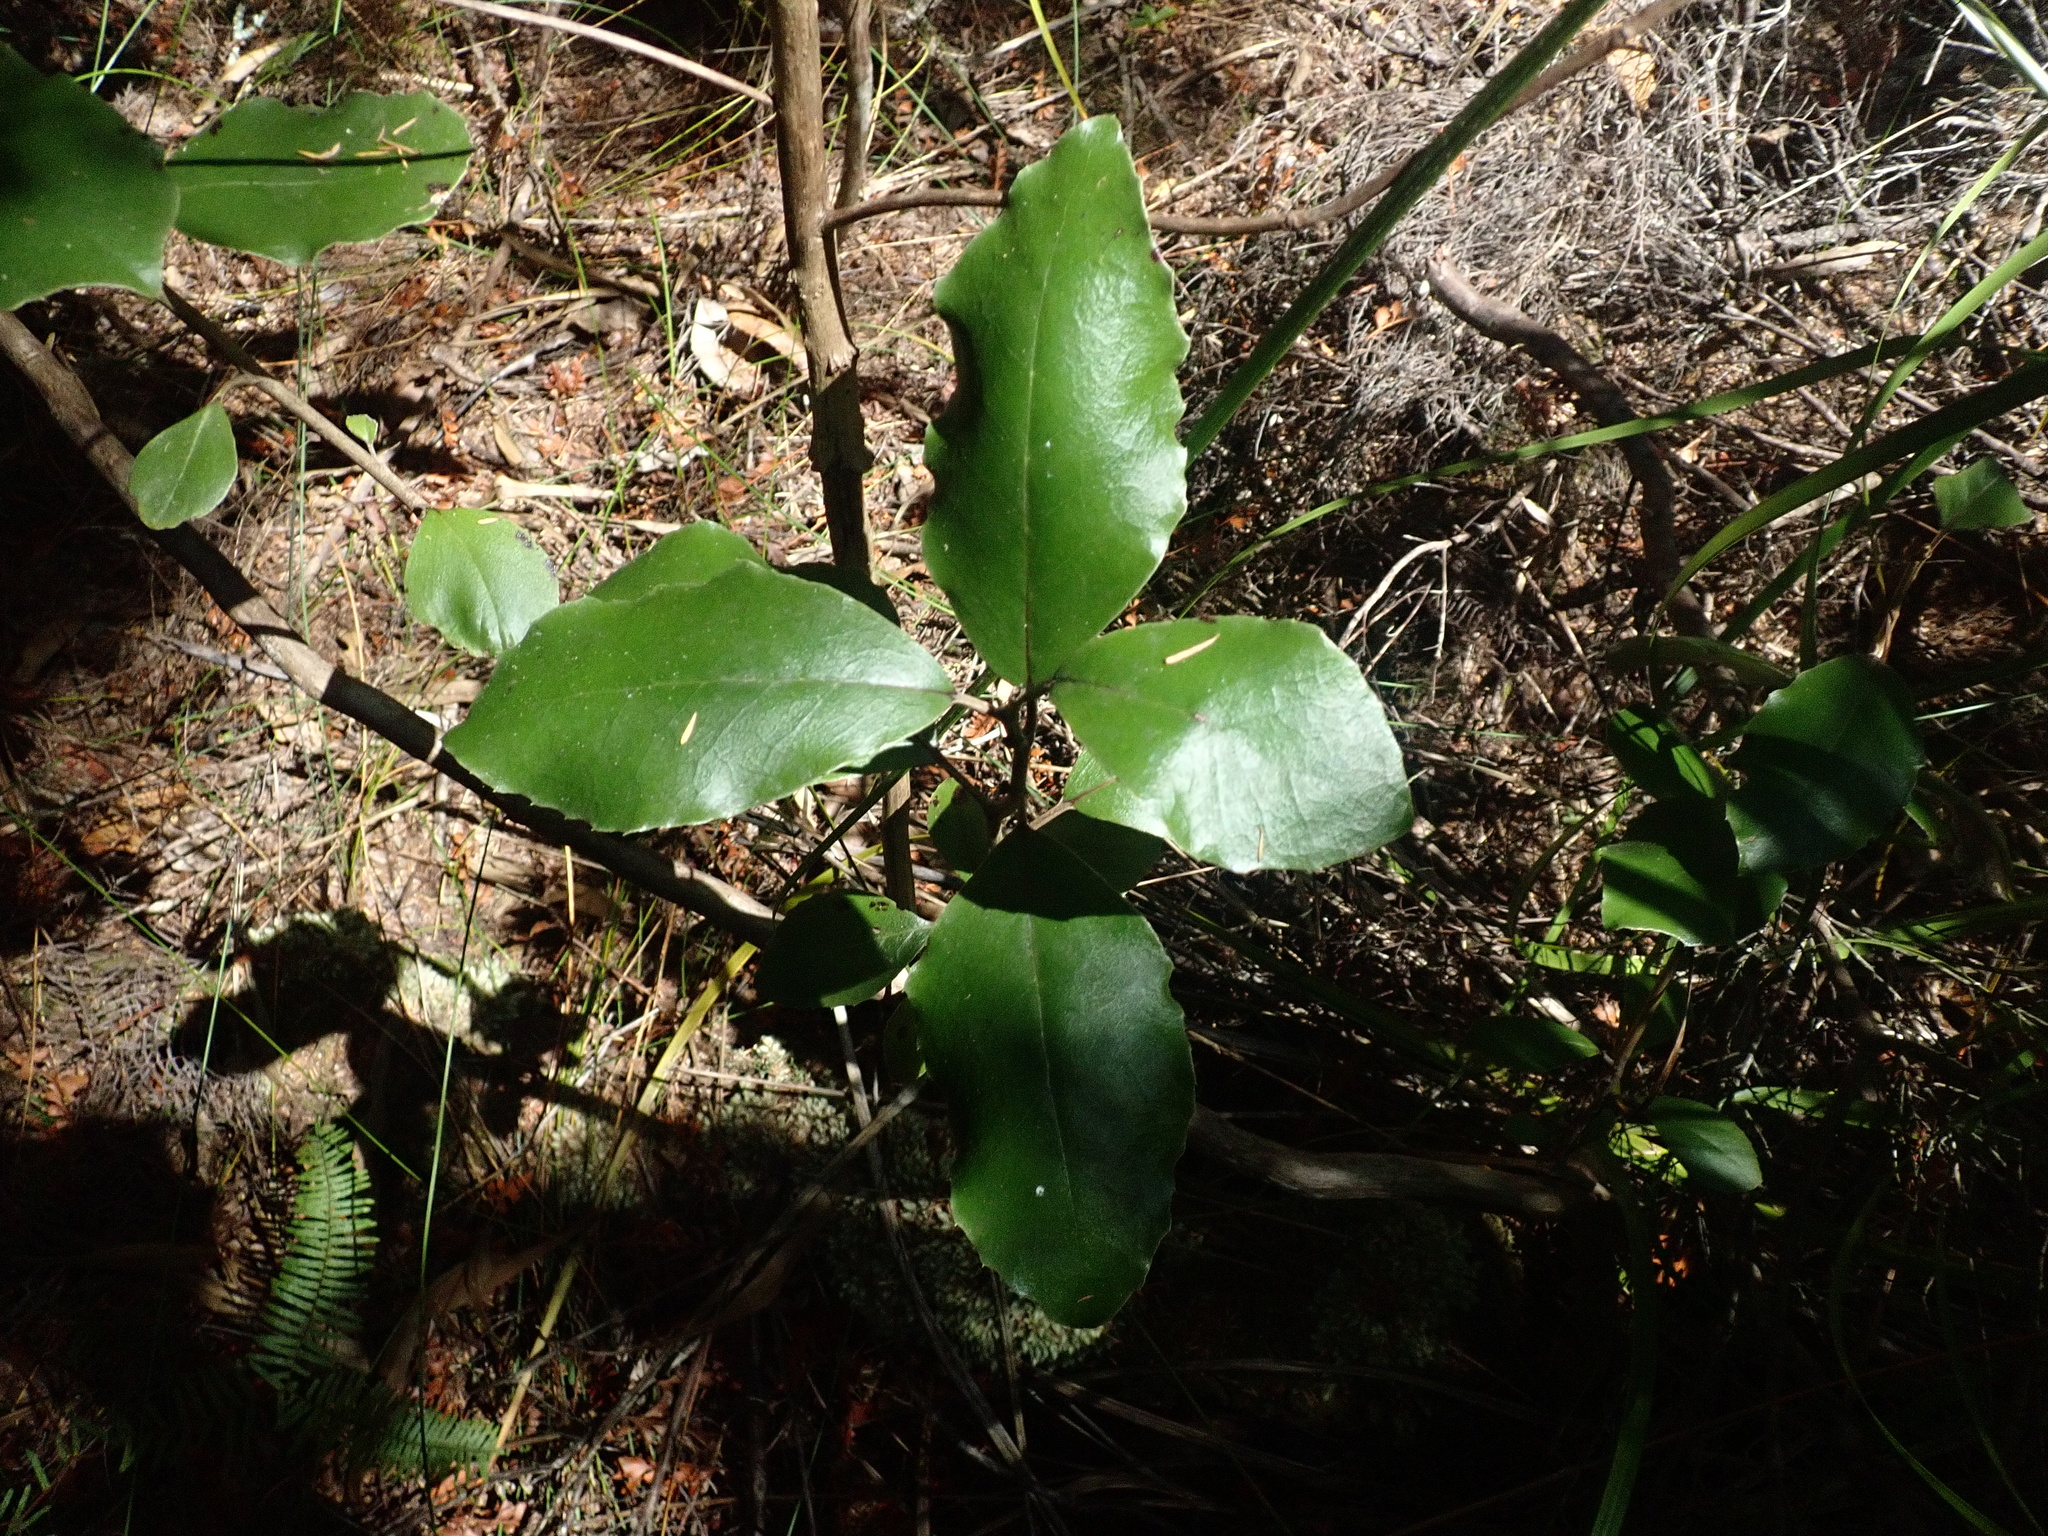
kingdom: Plantae
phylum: Tracheophyta
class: Magnoliopsida
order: Asterales
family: Asteraceae
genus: Olearia
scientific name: Olearia furfuracea
